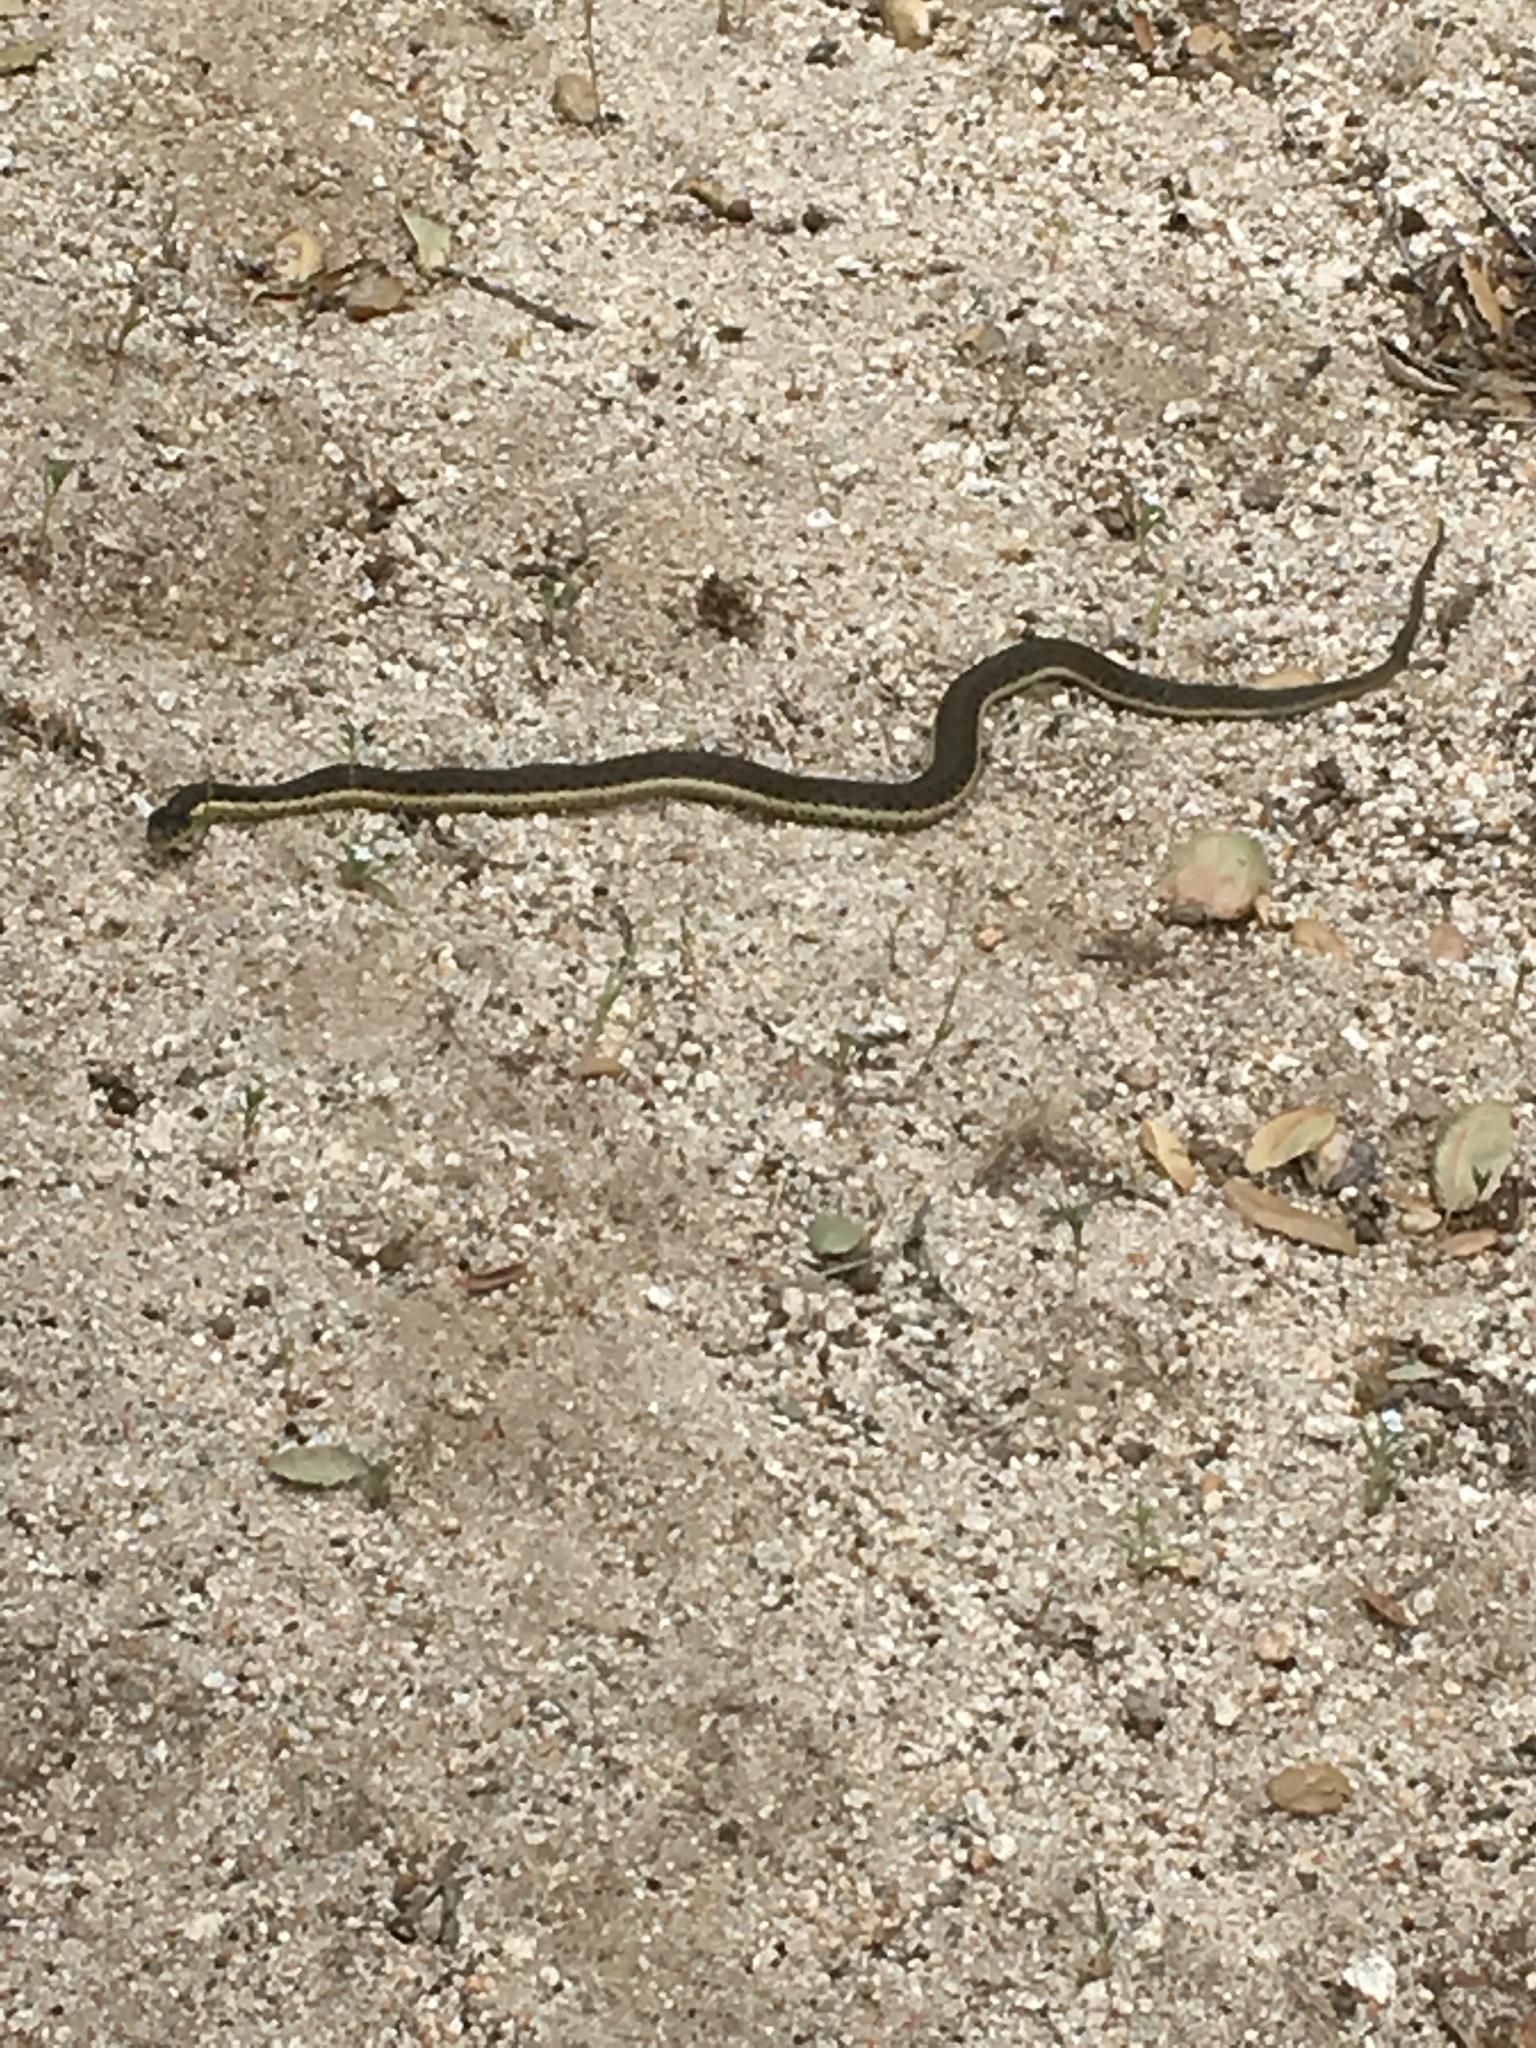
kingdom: Animalia
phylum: Chordata
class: Squamata
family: Colubridae
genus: Thamnophis
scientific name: Thamnophis hammondii
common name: Two-striped garter snake
